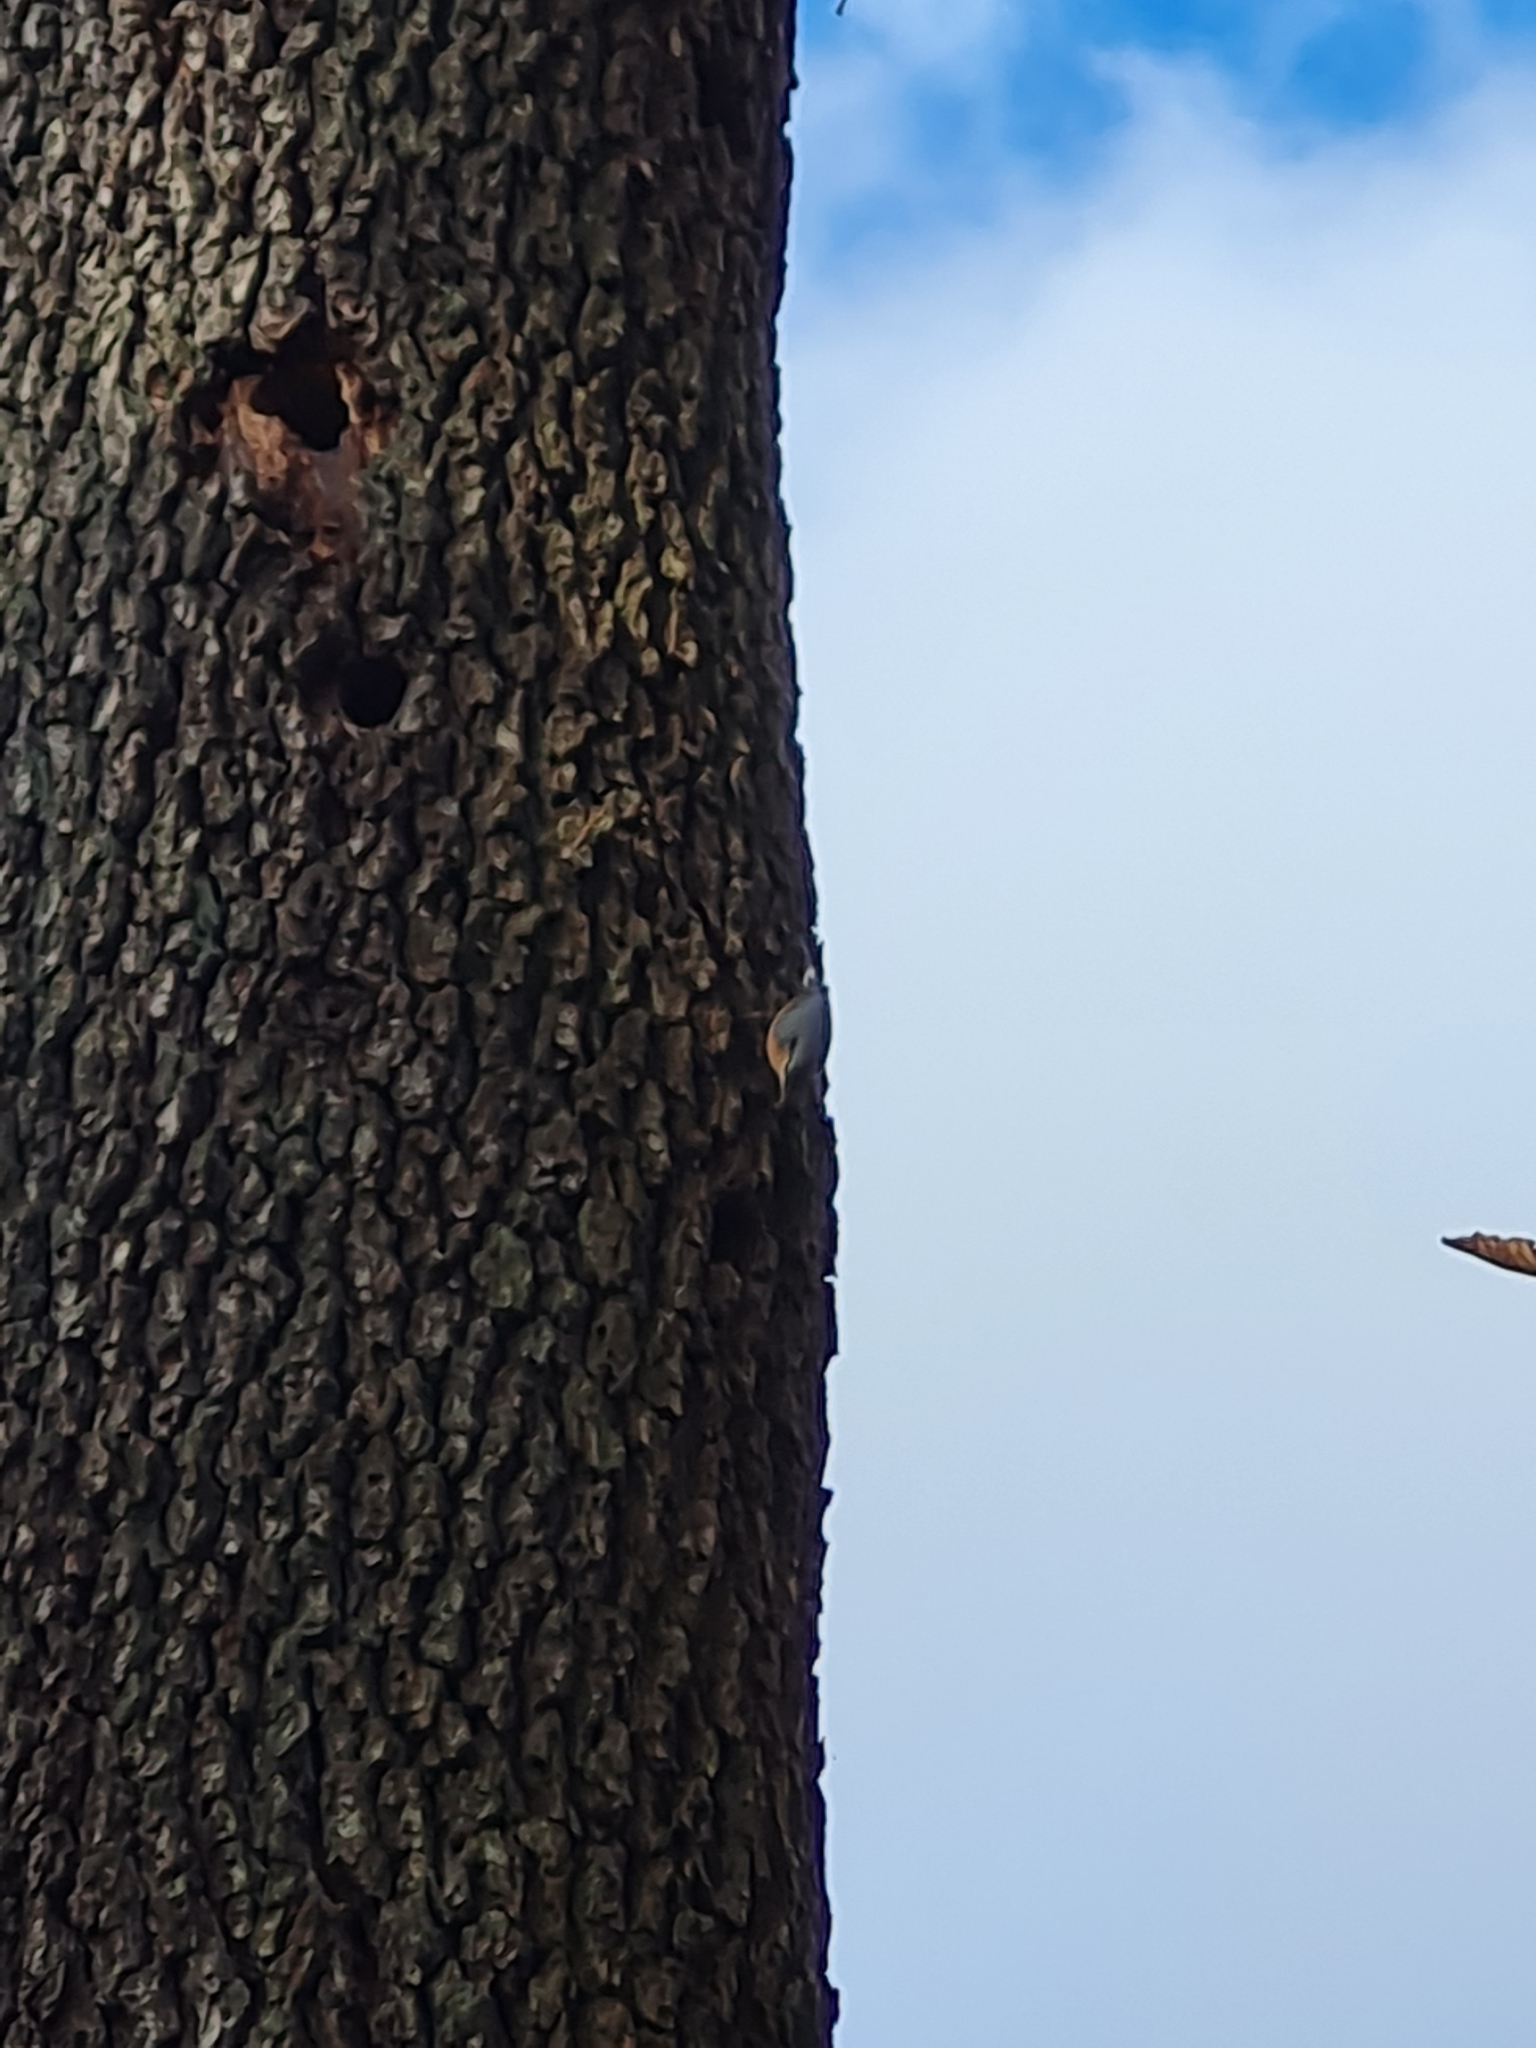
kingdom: Animalia
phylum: Chordata
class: Aves
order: Passeriformes
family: Sittidae
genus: Sitta
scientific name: Sitta europaea
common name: Eurasian nuthatch
